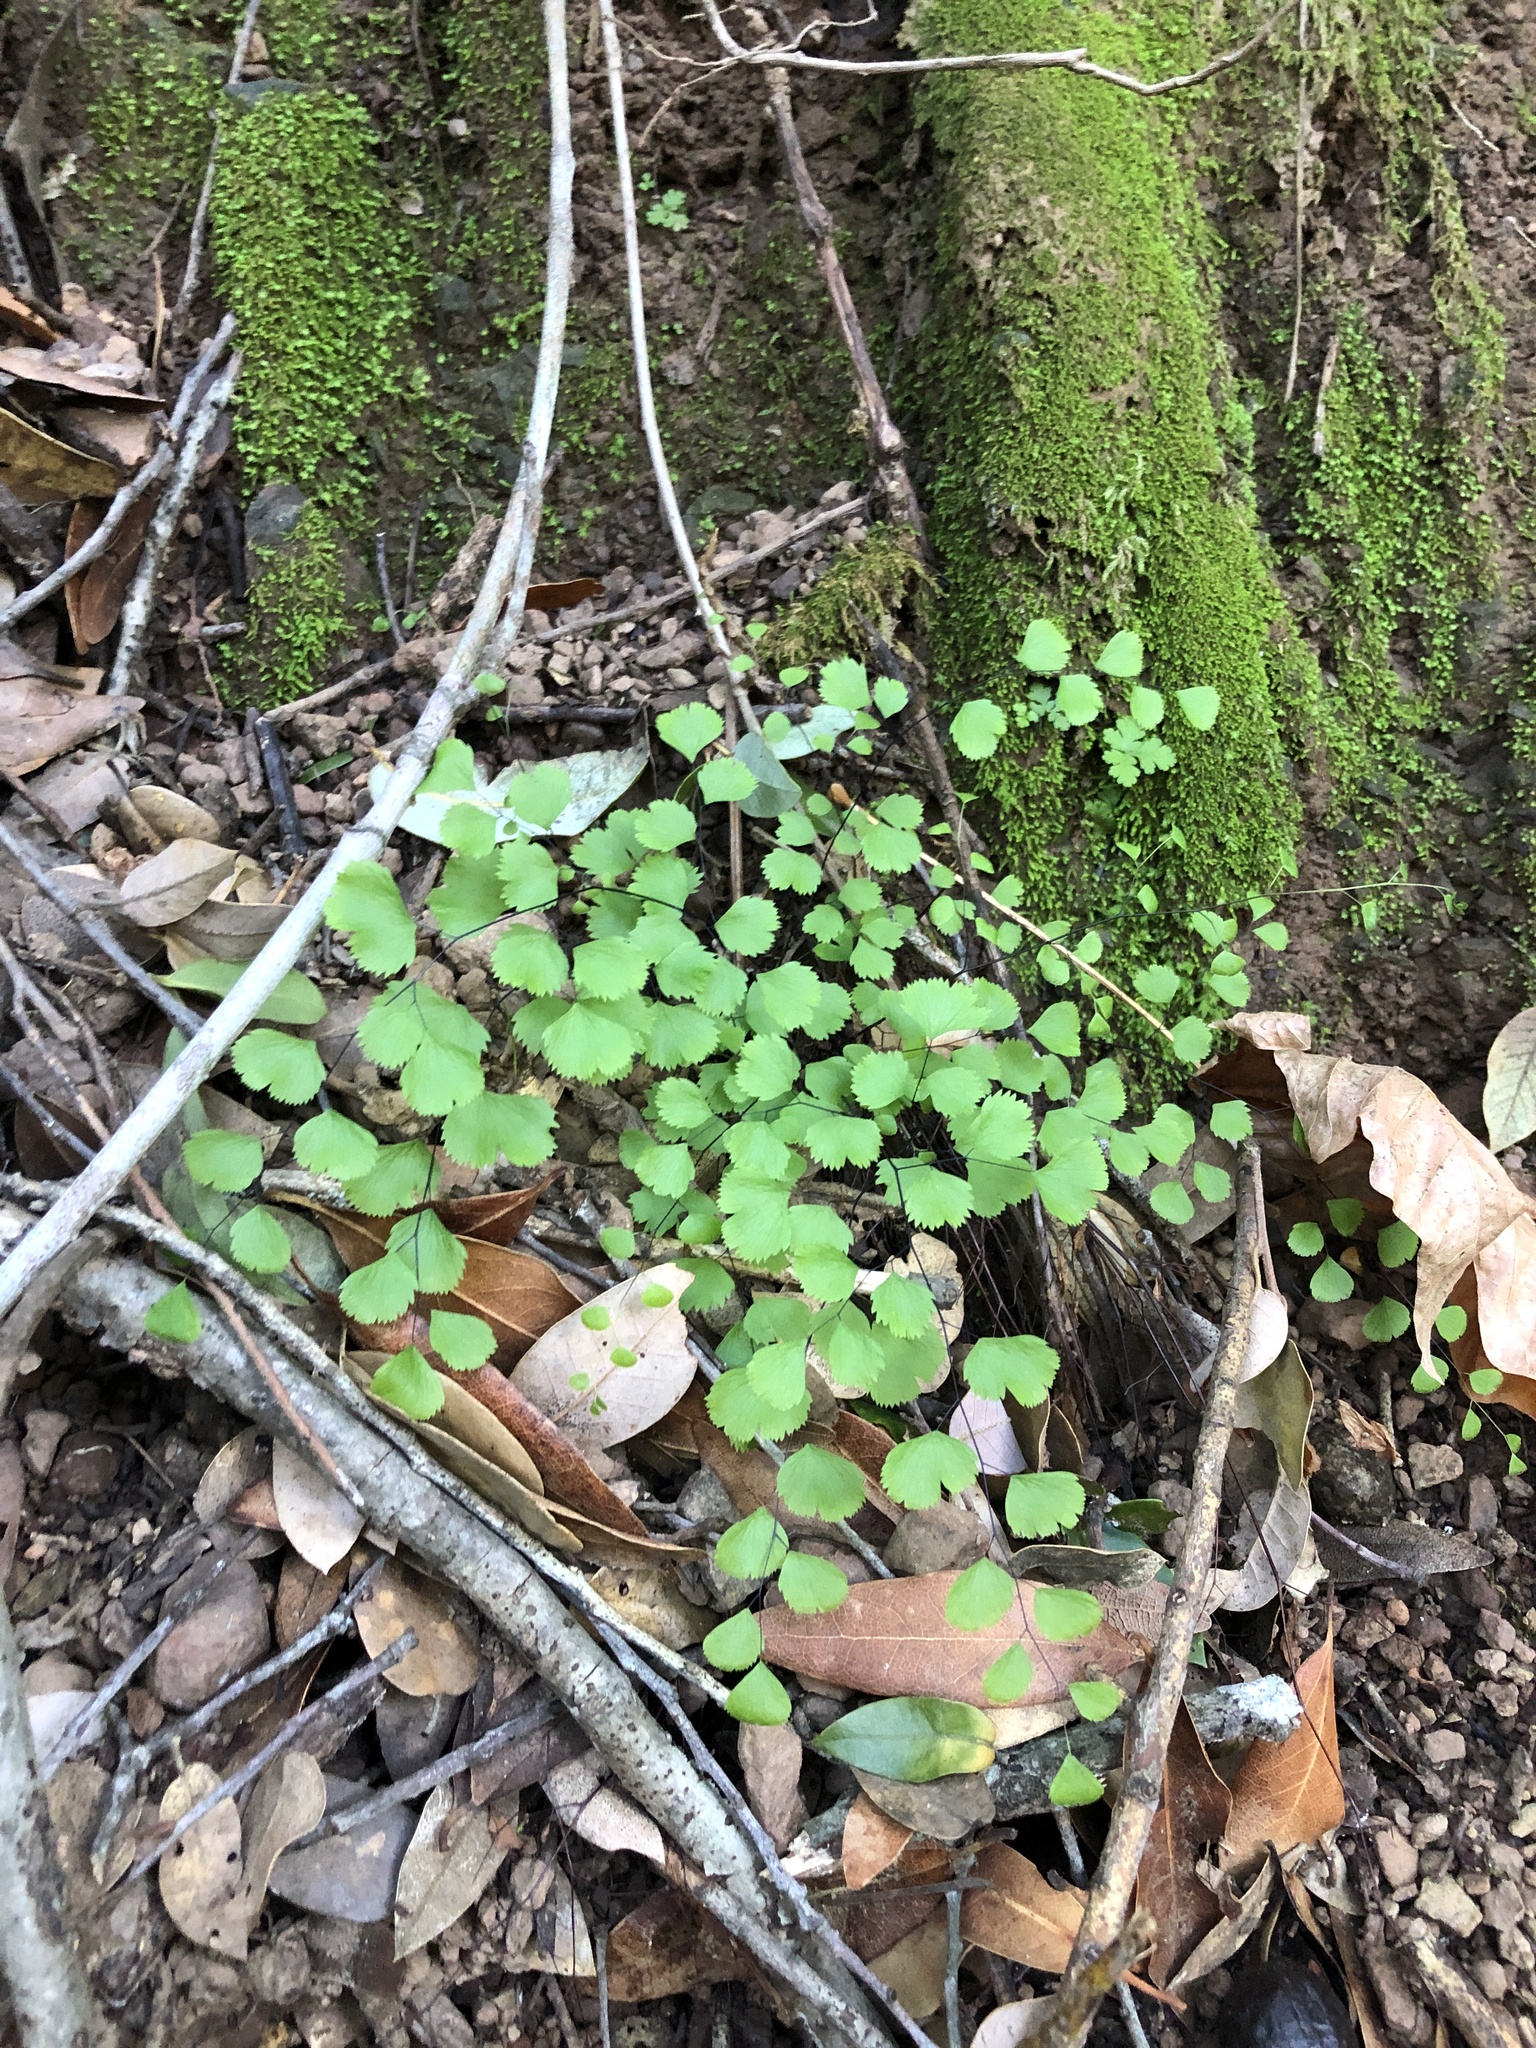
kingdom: Plantae
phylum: Tracheophyta
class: Polypodiopsida
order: Polypodiales
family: Pteridaceae
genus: Adiantum
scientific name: Adiantum jordanii
